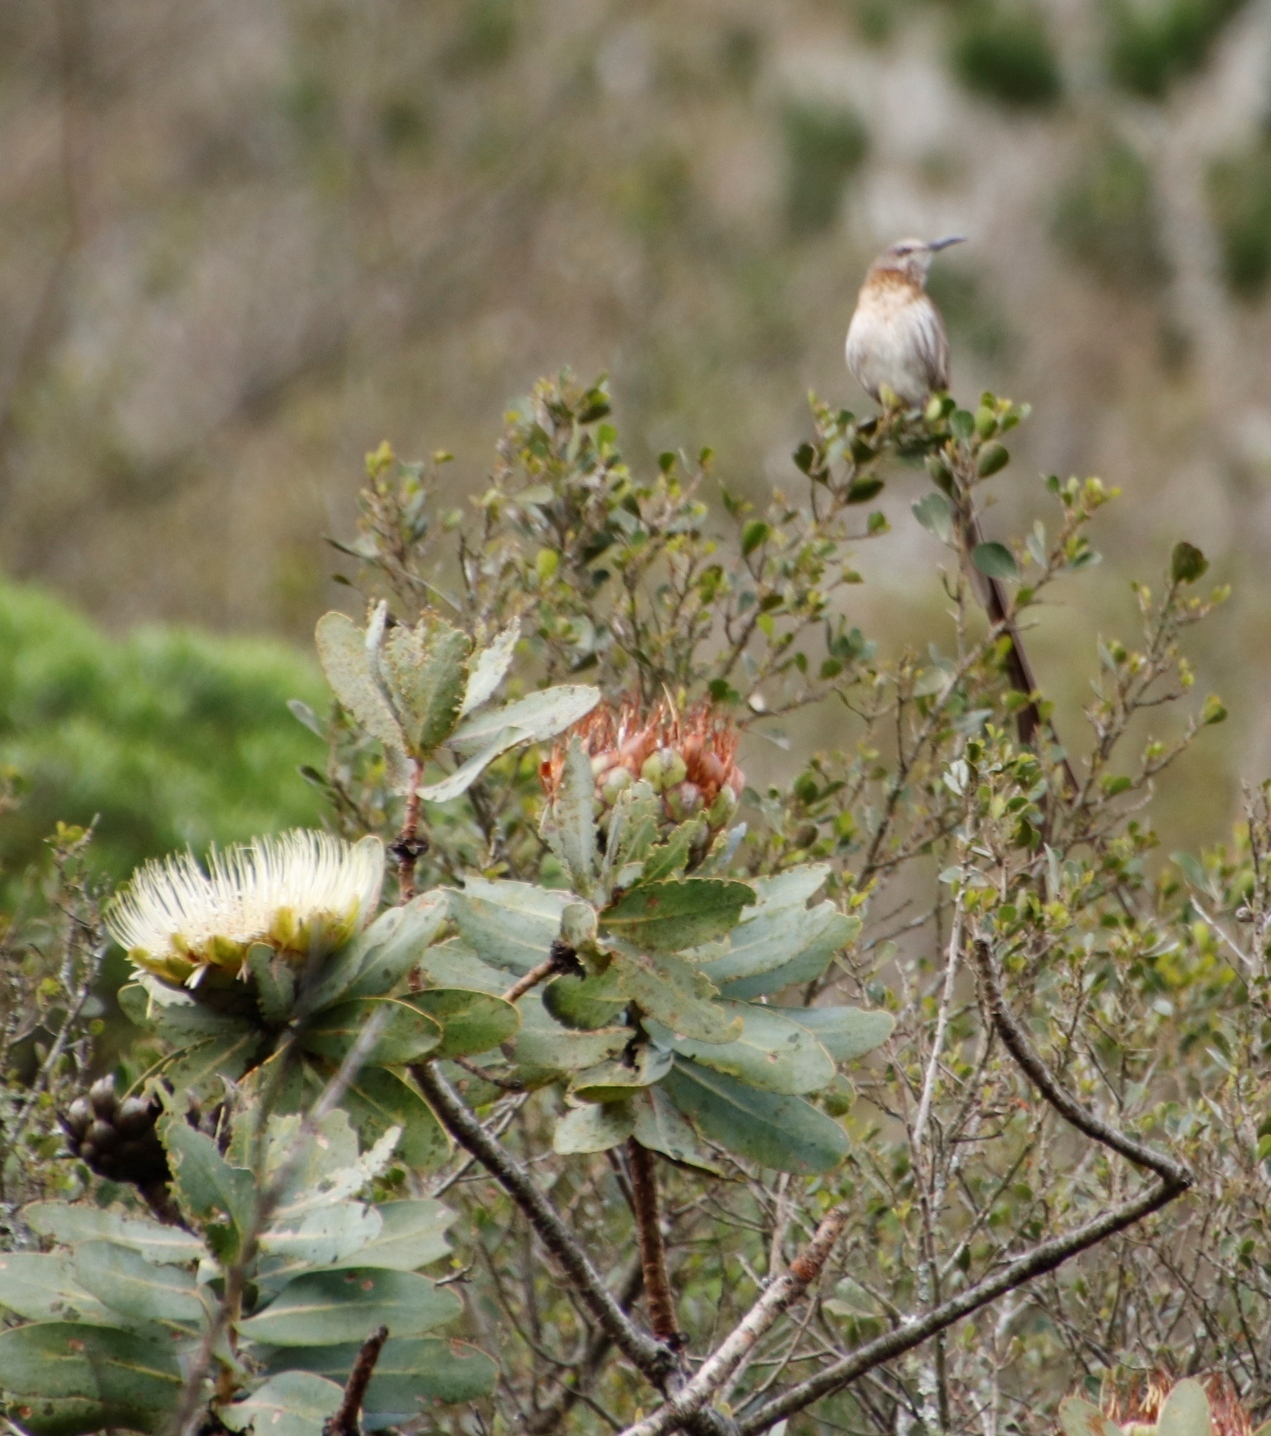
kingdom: Animalia
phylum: Chordata
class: Aves
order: Passeriformes
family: Promeropidae
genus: Promerops
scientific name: Promerops cafer
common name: Cape sugarbird
